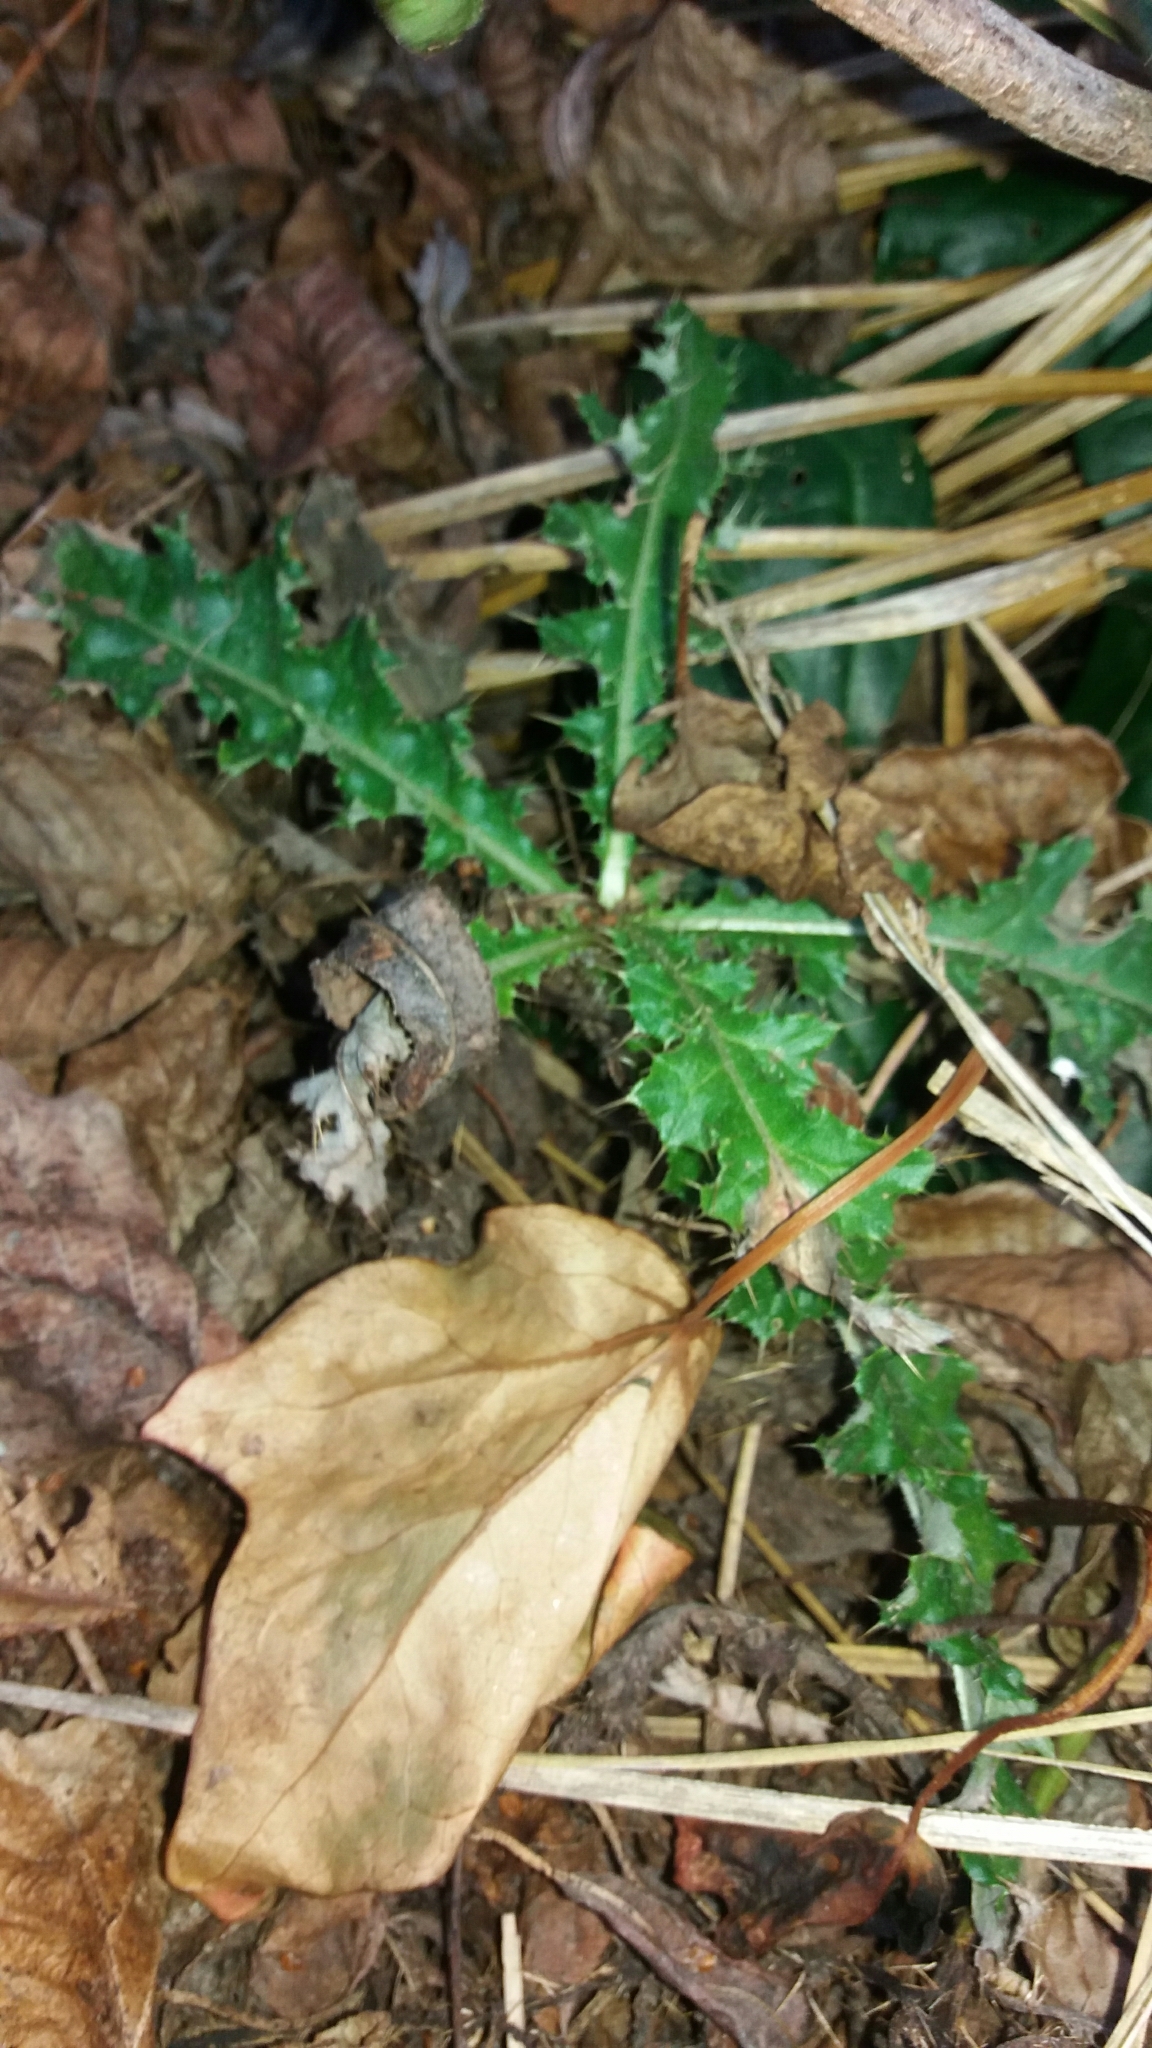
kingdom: Plantae
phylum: Tracheophyta
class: Magnoliopsida
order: Asterales
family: Asteraceae
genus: Cirsium
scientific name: Cirsium arvense
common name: Creeping thistle
